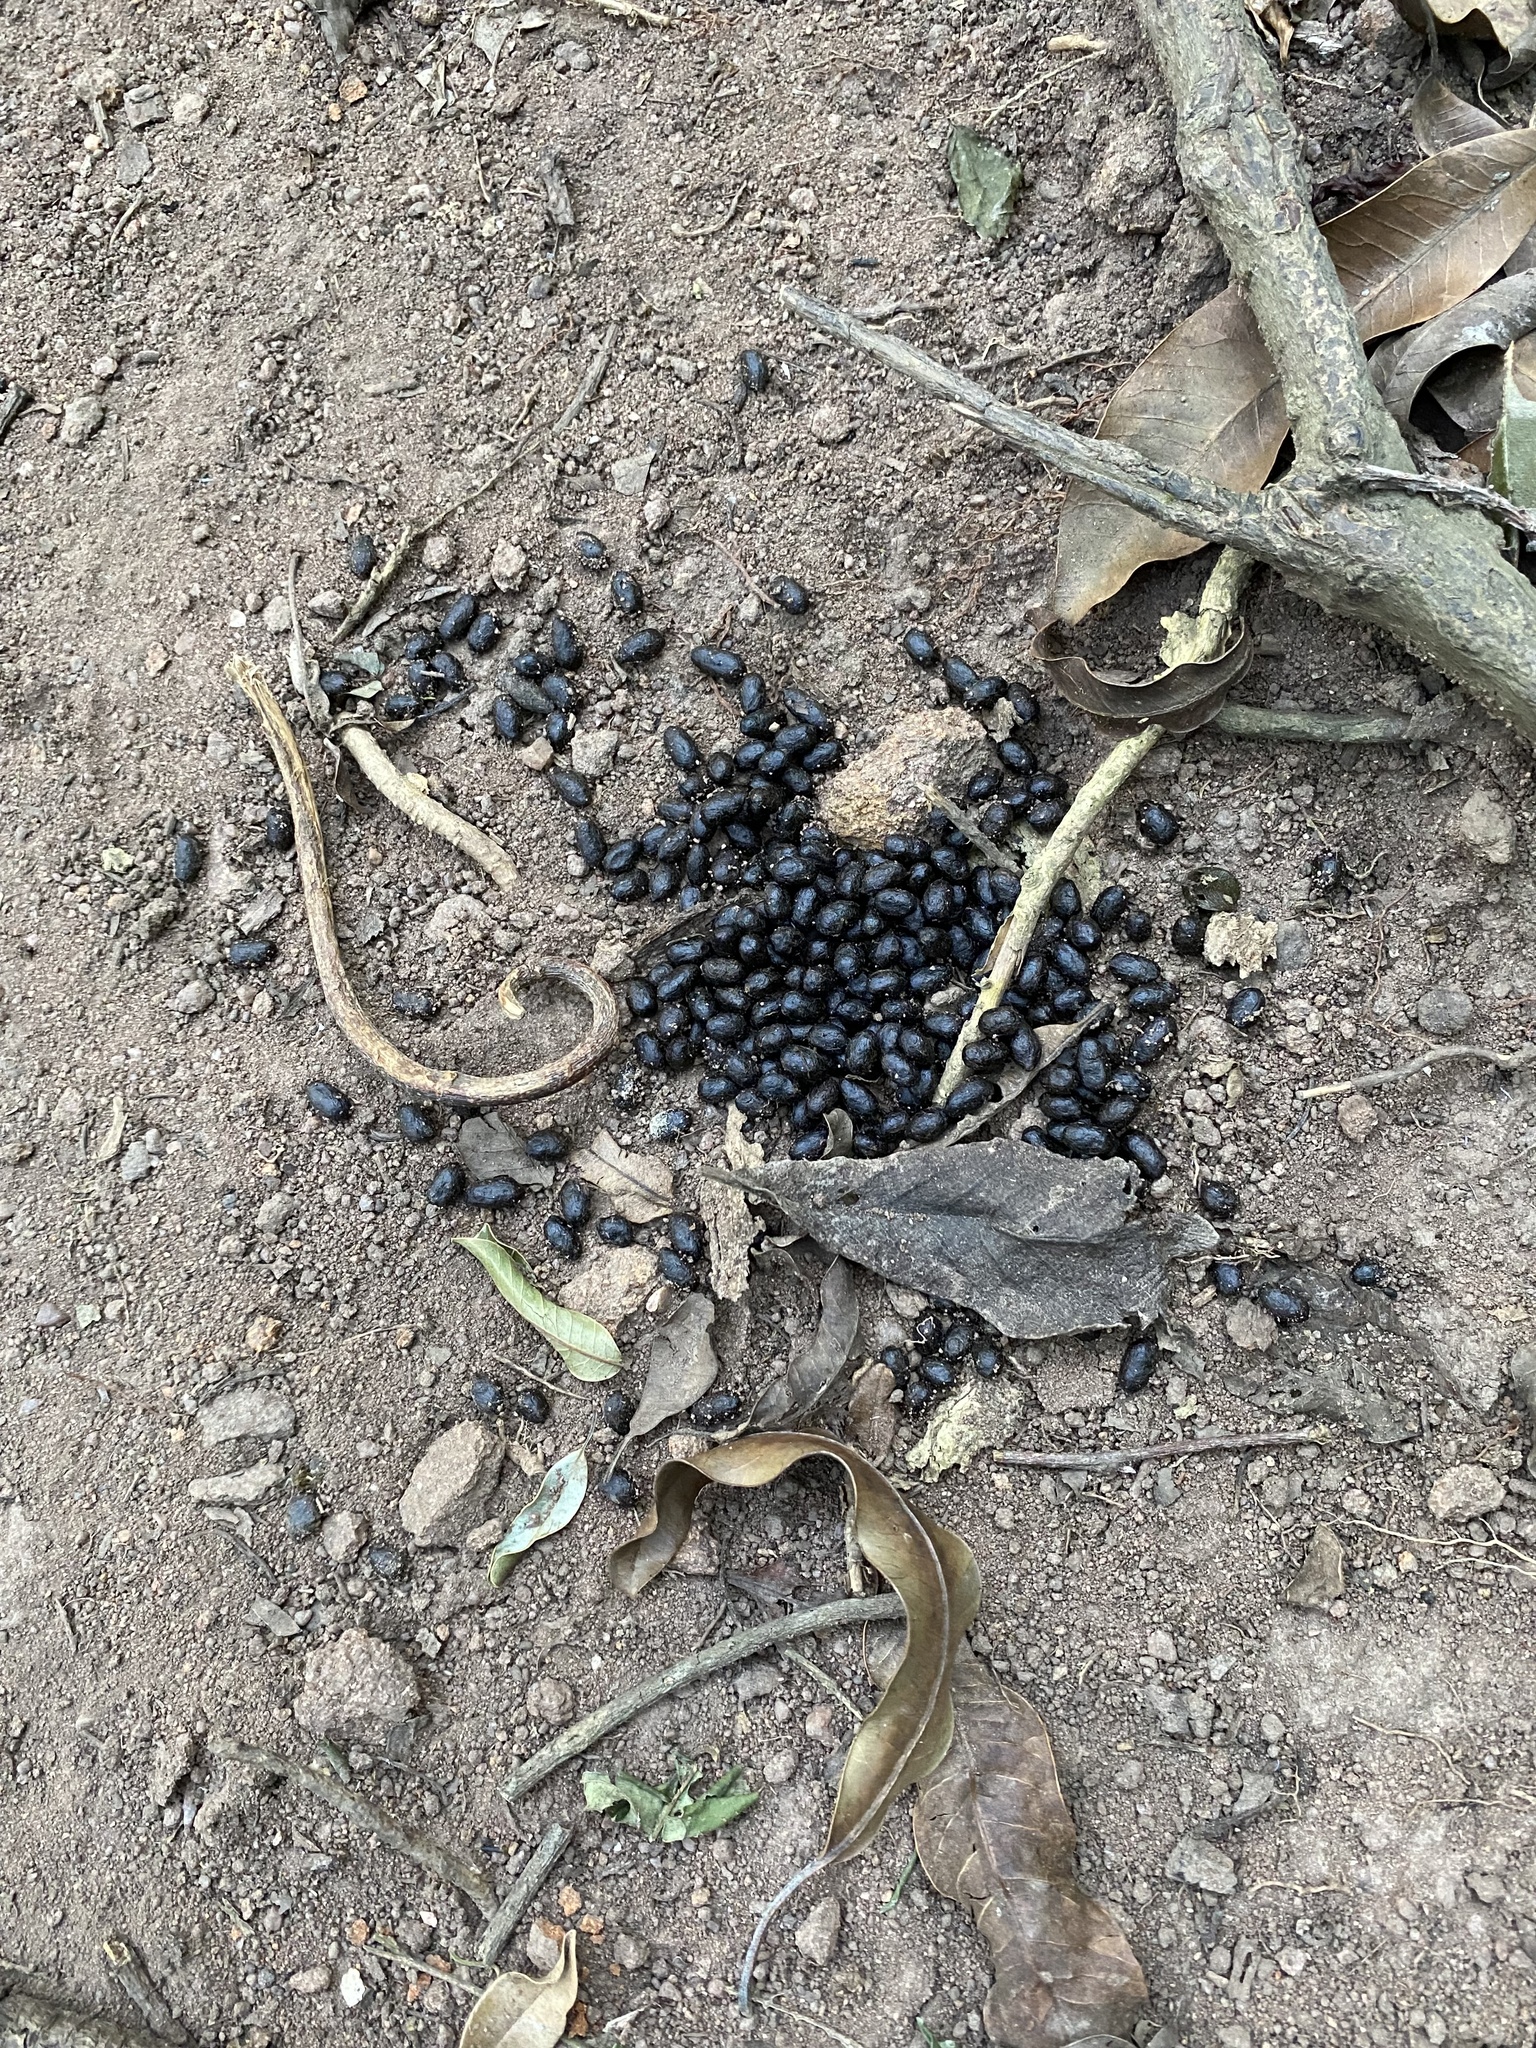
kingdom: Animalia
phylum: Chordata
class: Mammalia
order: Artiodactyla
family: Bovidae
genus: Philantomba
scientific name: Philantomba monticola
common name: Blue duiker
